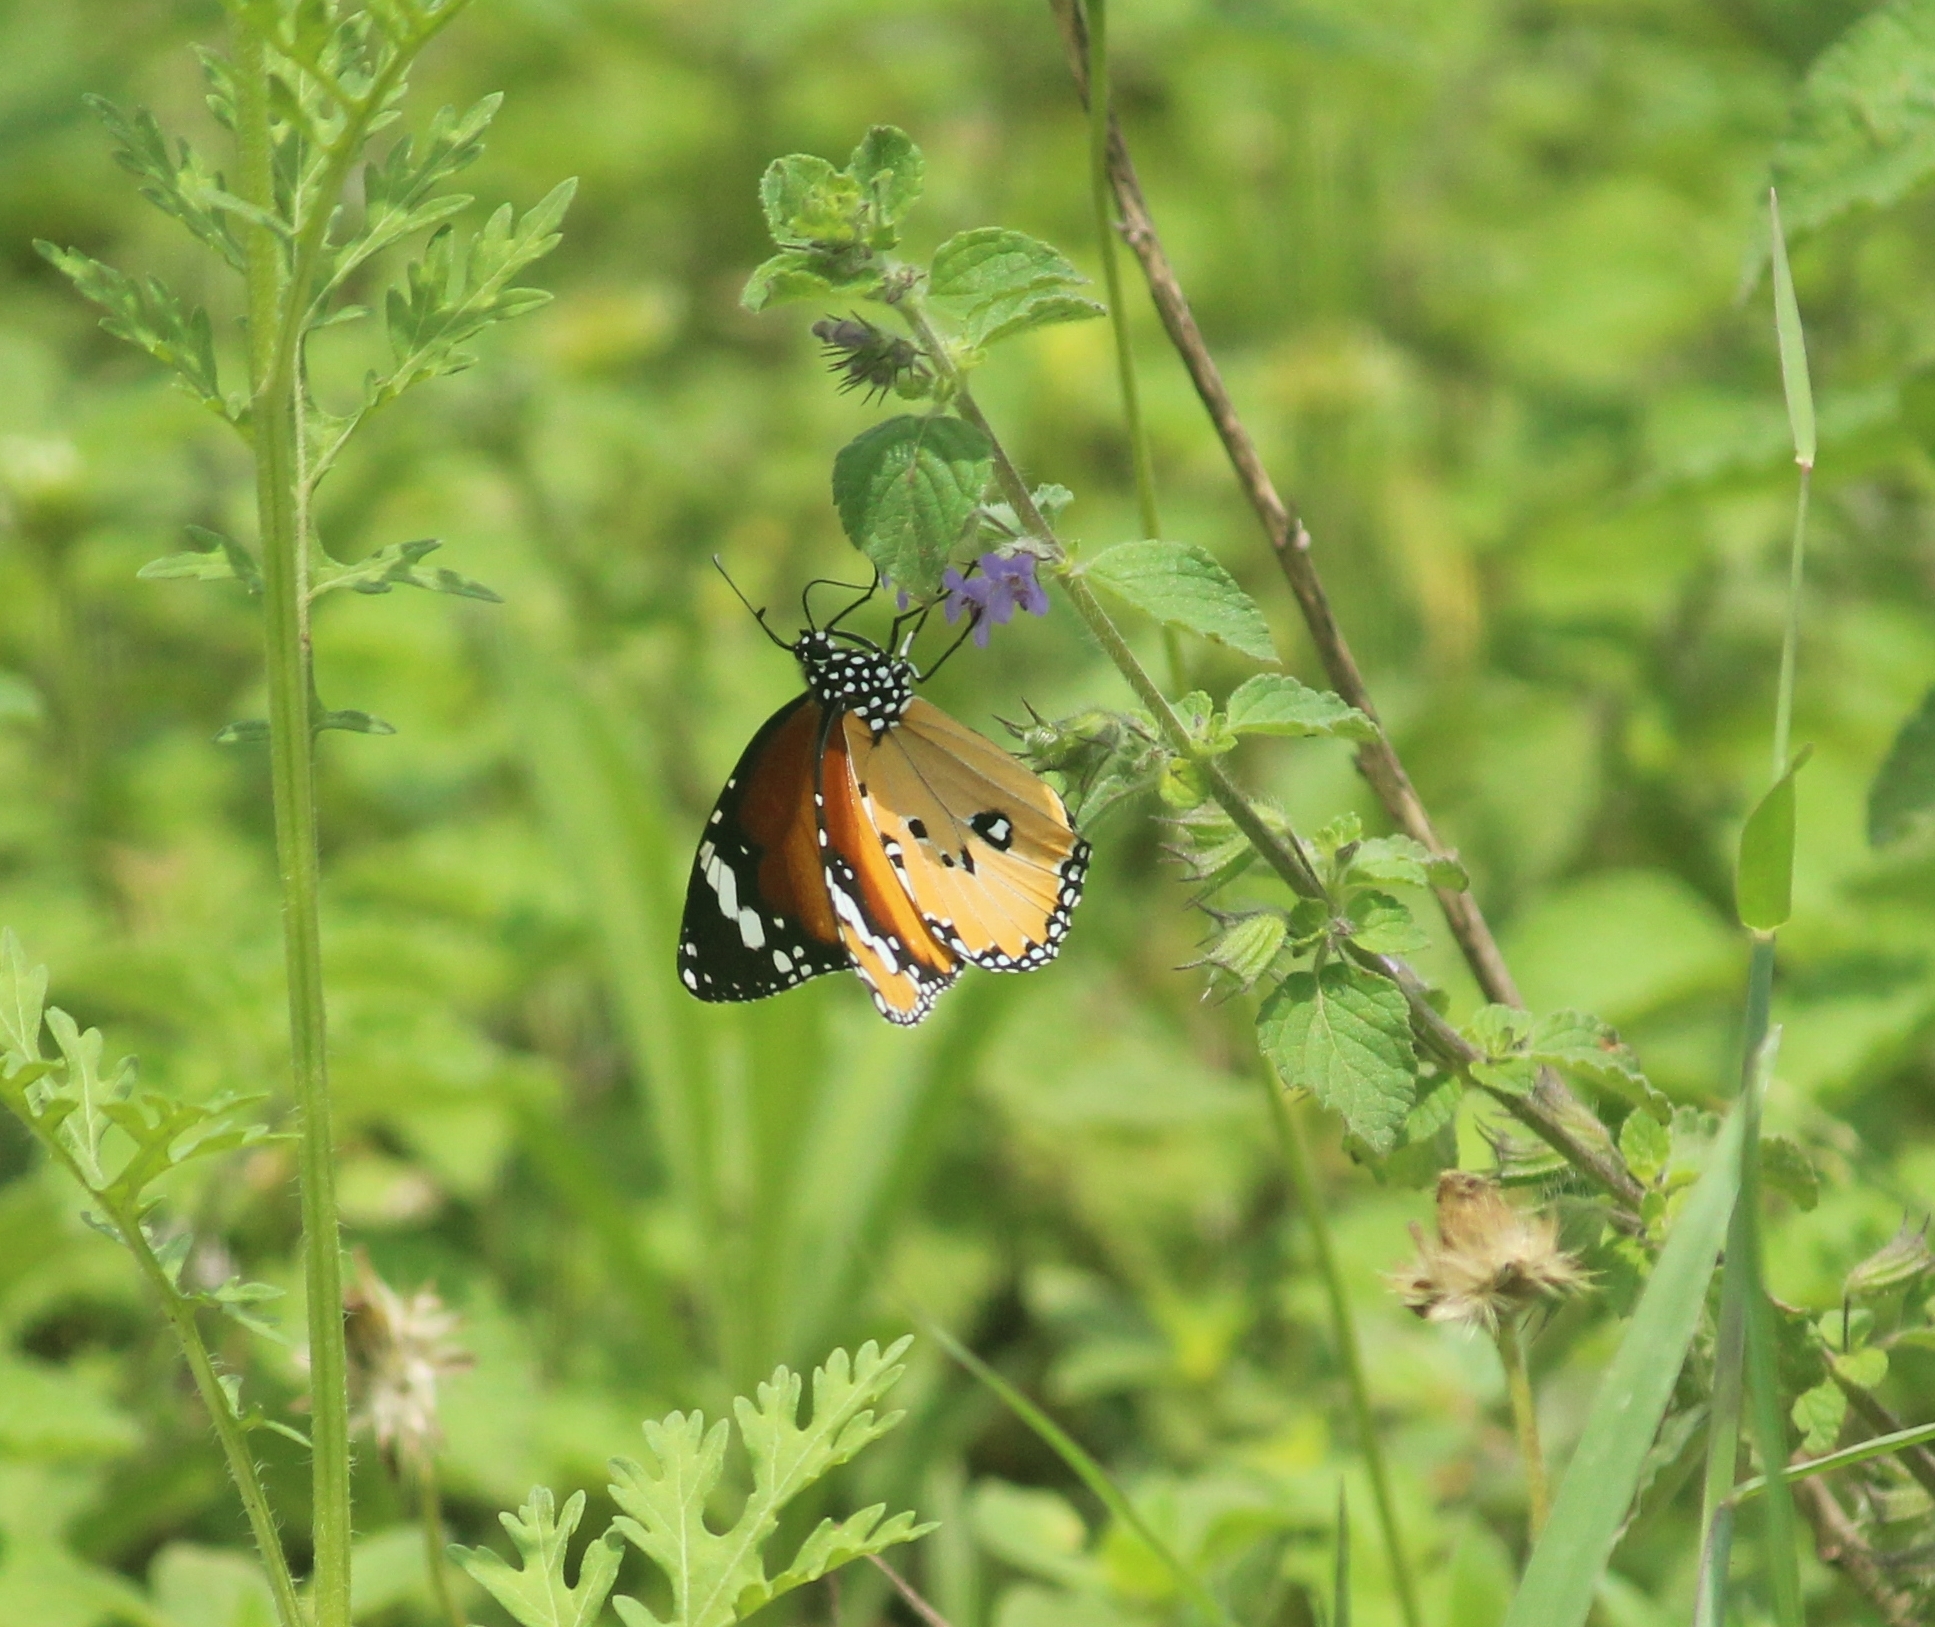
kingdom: Animalia
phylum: Arthropoda
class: Insecta
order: Lepidoptera
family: Nymphalidae
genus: Danaus
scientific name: Danaus chrysippus
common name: Plain tiger
